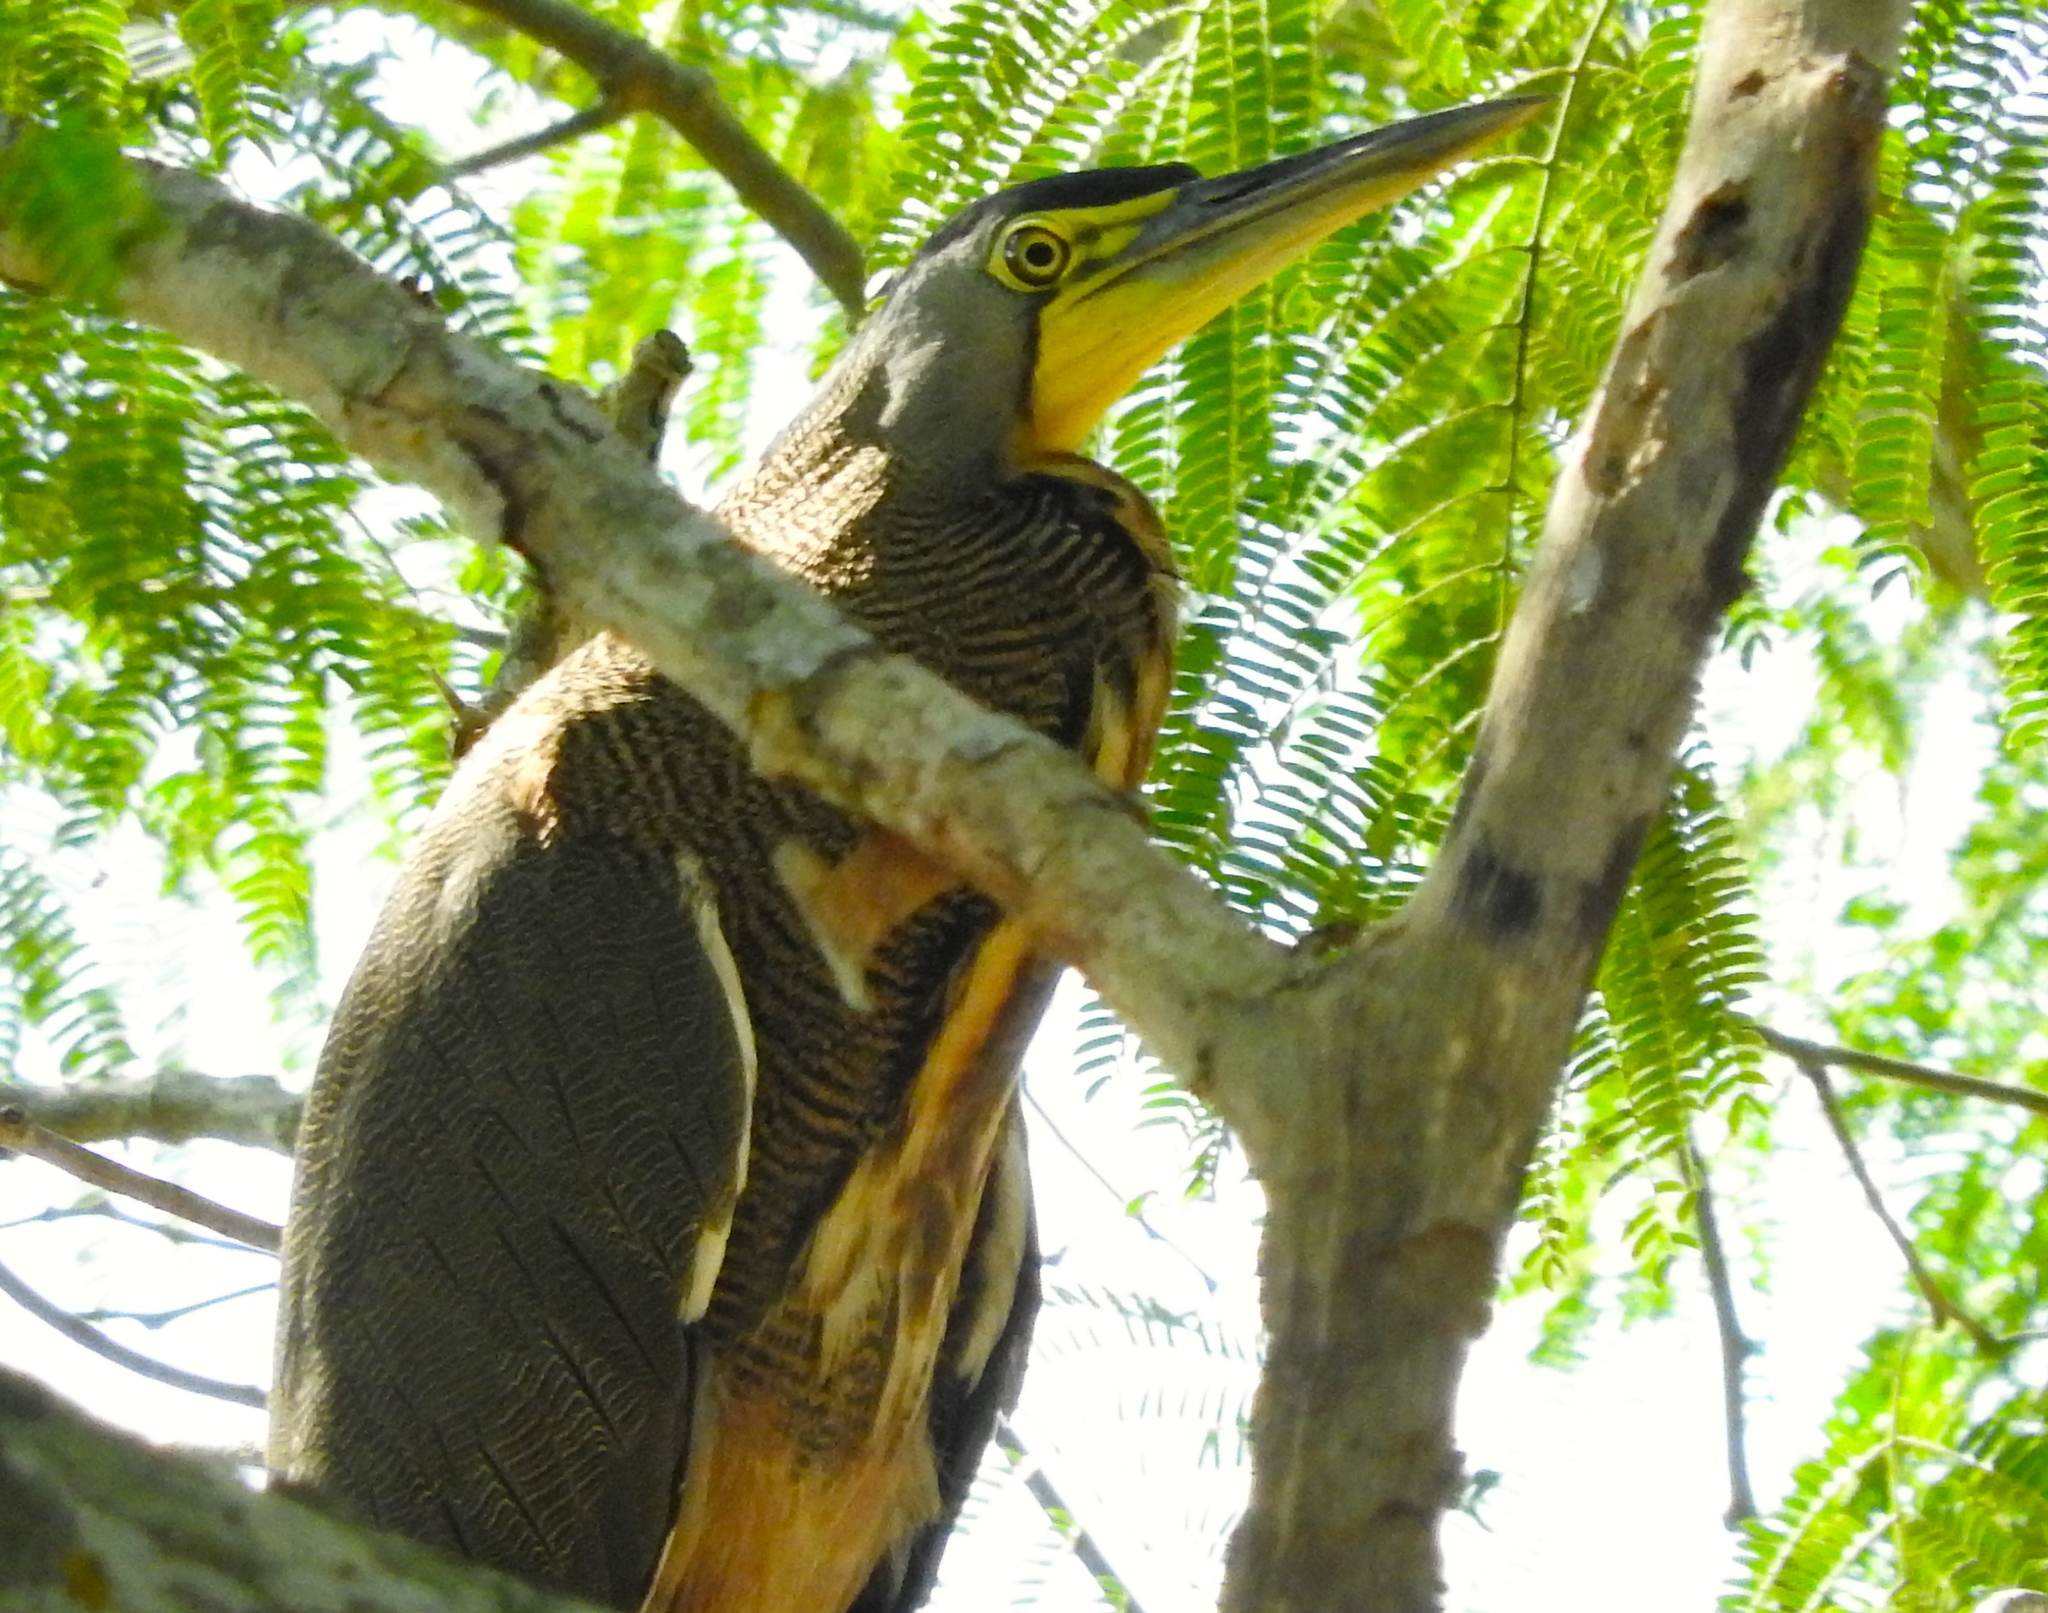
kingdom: Animalia
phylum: Chordata
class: Aves
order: Pelecaniformes
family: Ardeidae
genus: Tigrisoma
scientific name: Tigrisoma mexicanum
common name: Bare-throated tiger-heron
